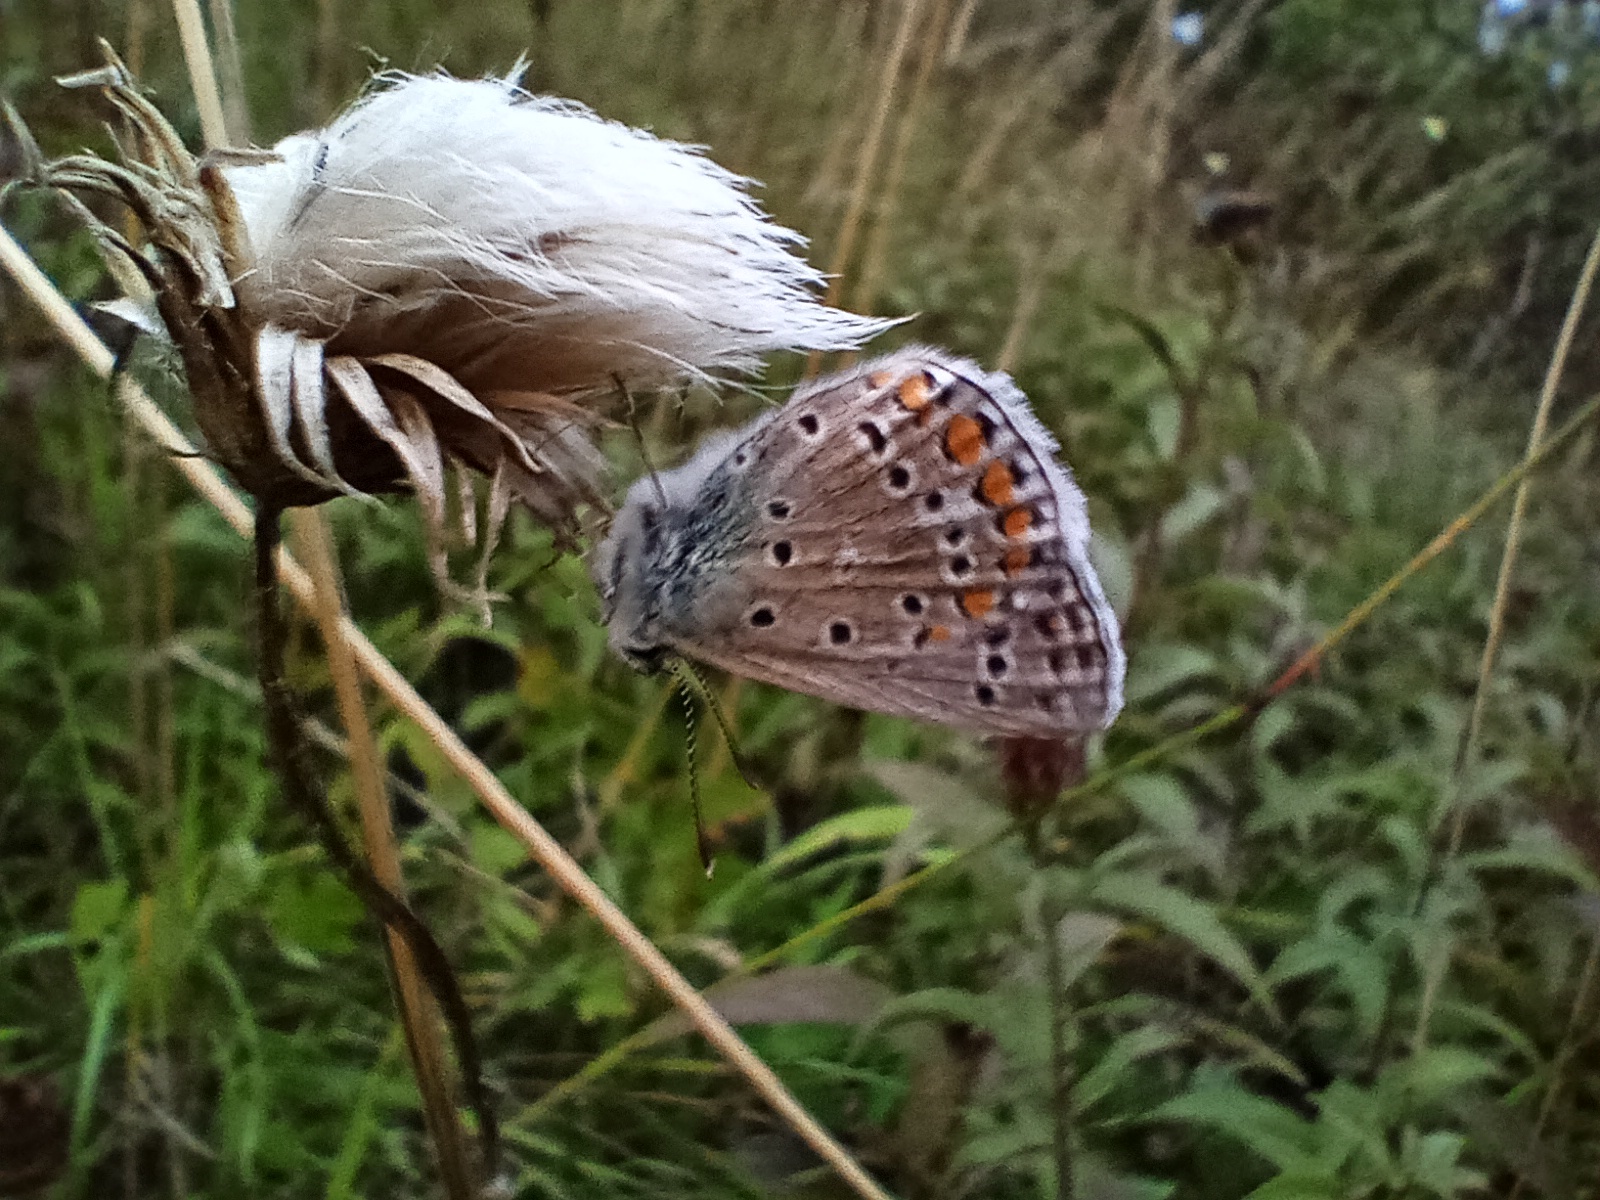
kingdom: Animalia
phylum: Arthropoda
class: Insecta
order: Lepidoptera
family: Lycaenidae
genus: Polyommatus
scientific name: Polyommatus icarus
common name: Common blue
